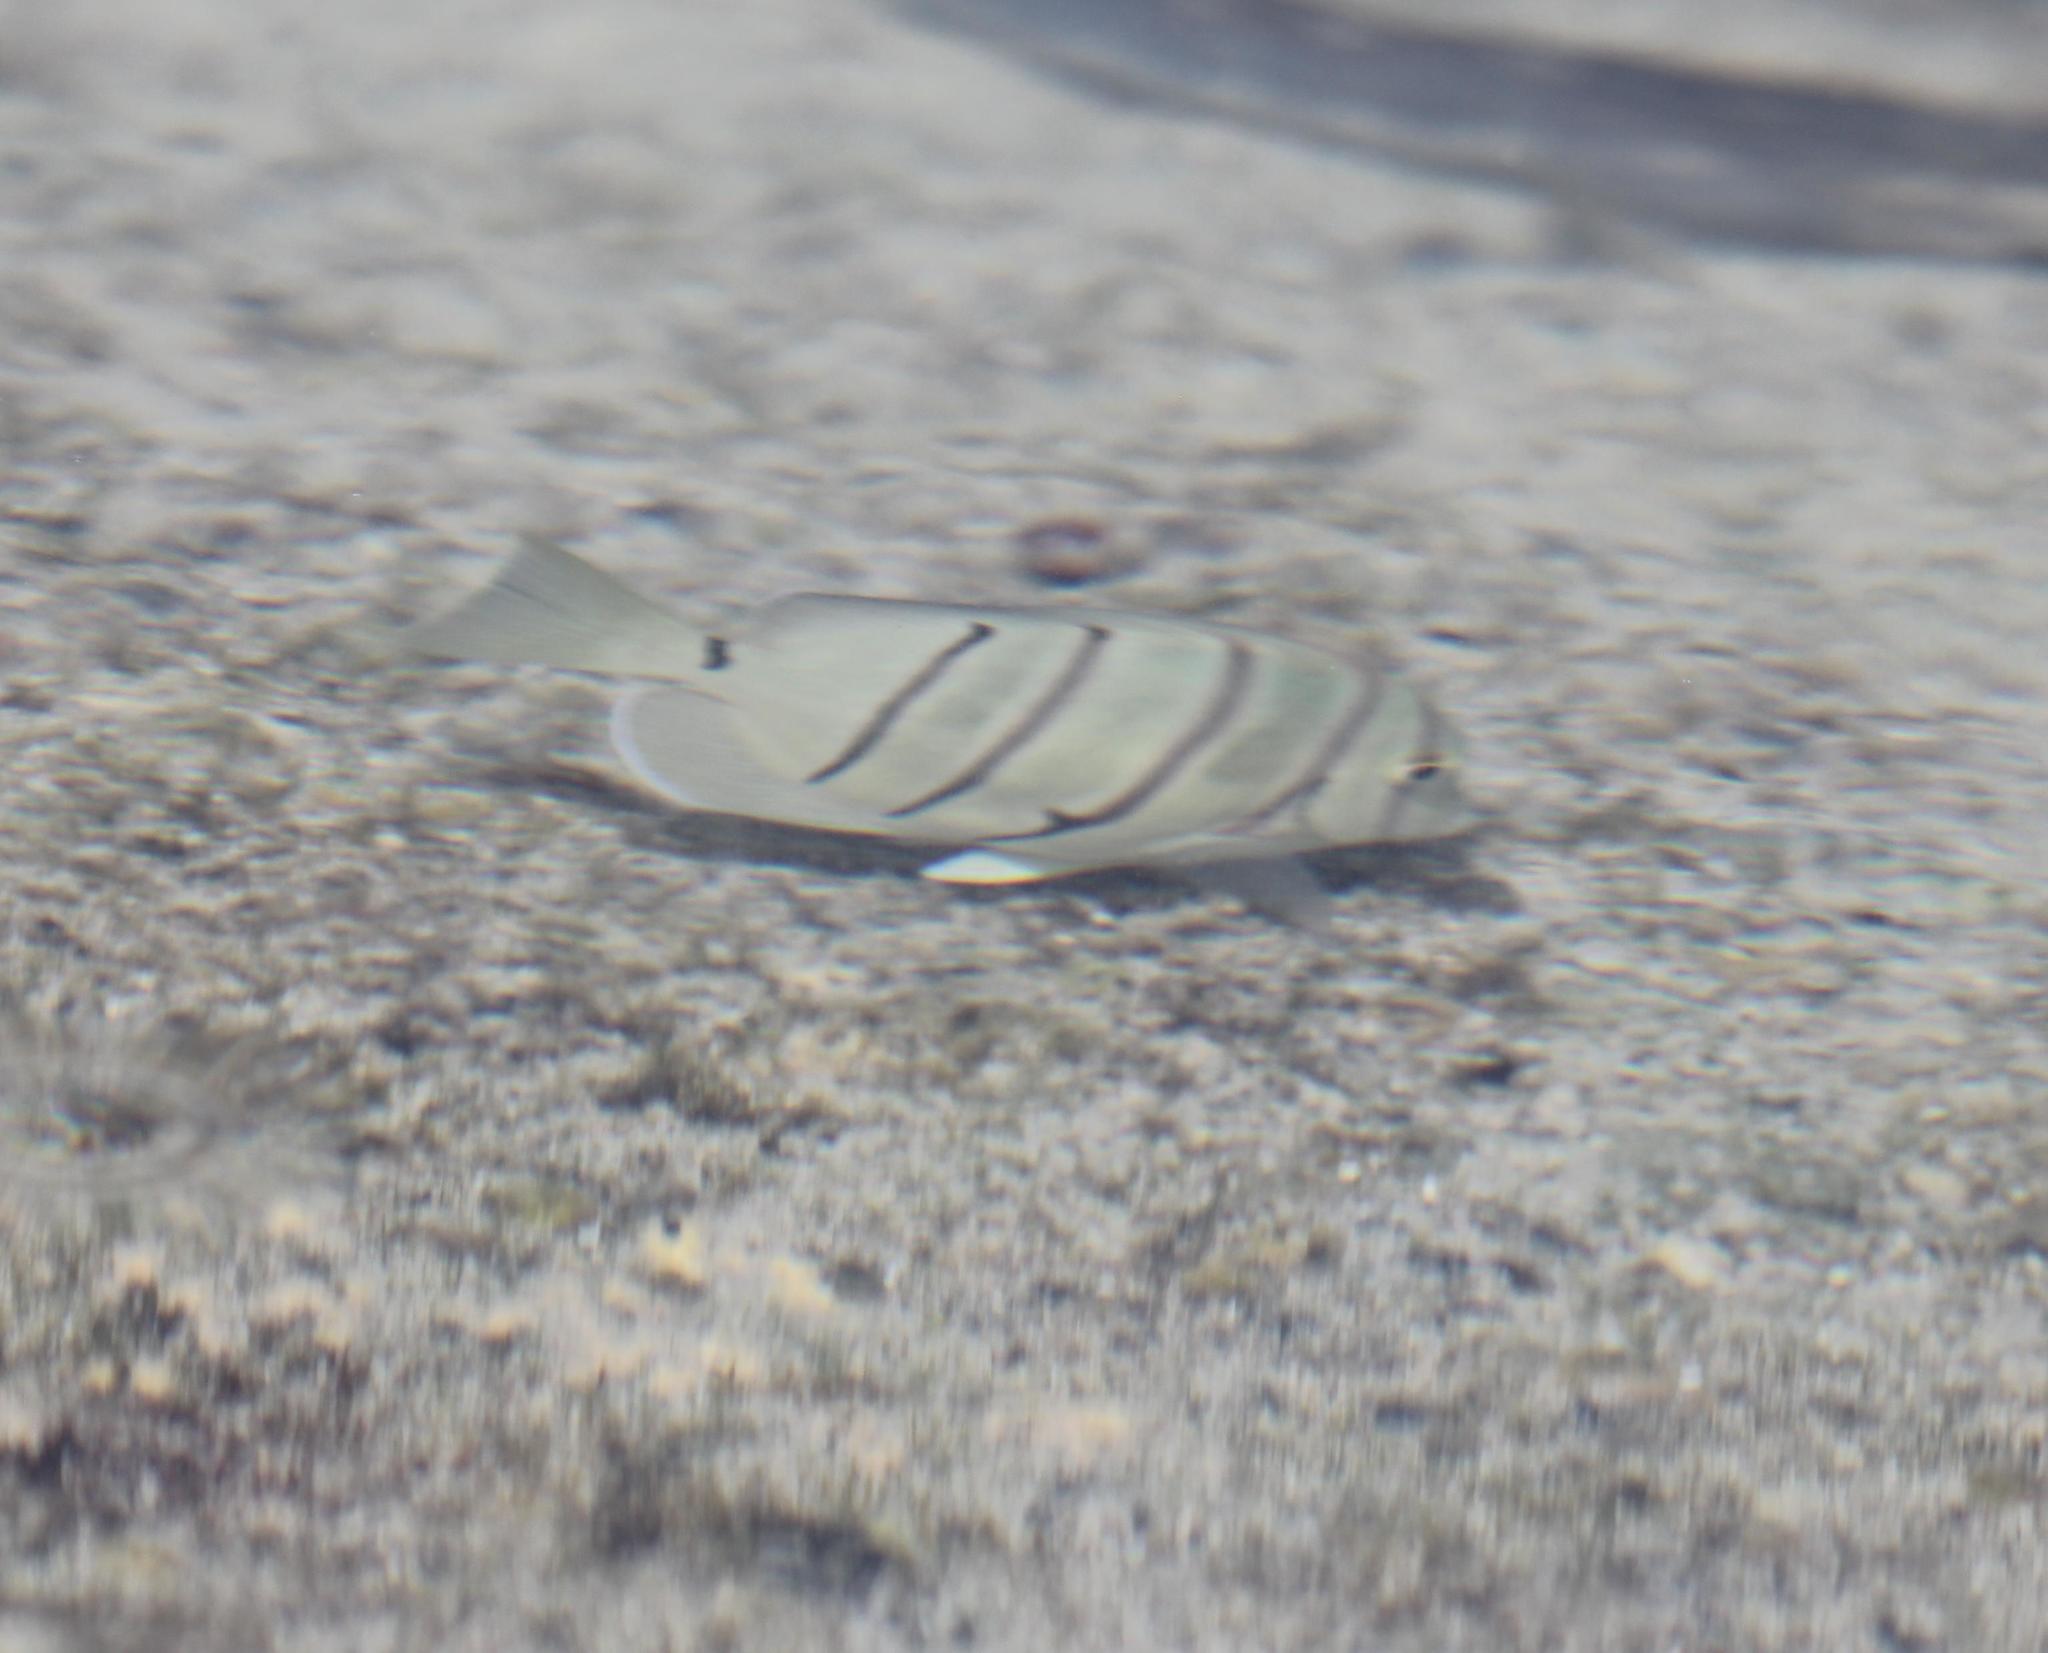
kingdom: Animalia
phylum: Chordata
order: Perciformes
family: Acanthuridae
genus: Acanthurus
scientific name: Acanthurus triostegus
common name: Convict surgeonfish
